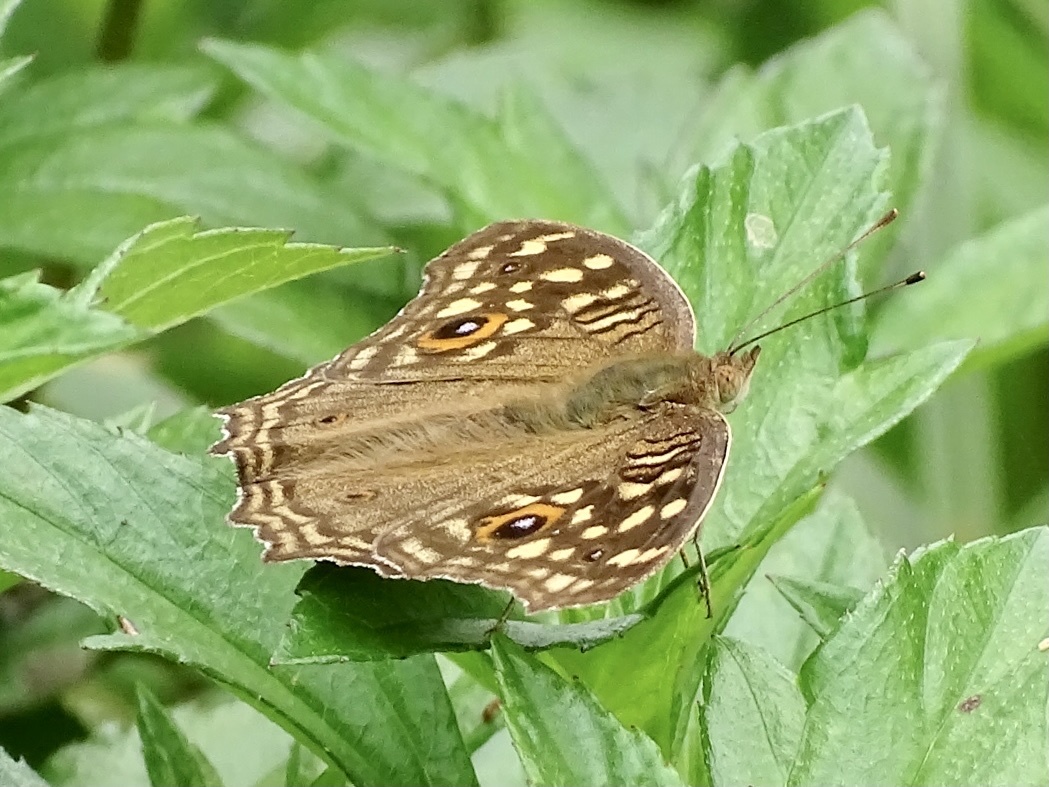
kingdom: Animalia
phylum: Arthropoda
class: Insecta
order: Lepidoptera
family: Nymphalidae
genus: Junonia
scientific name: Junonia lemonias
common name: Lemon pansy
